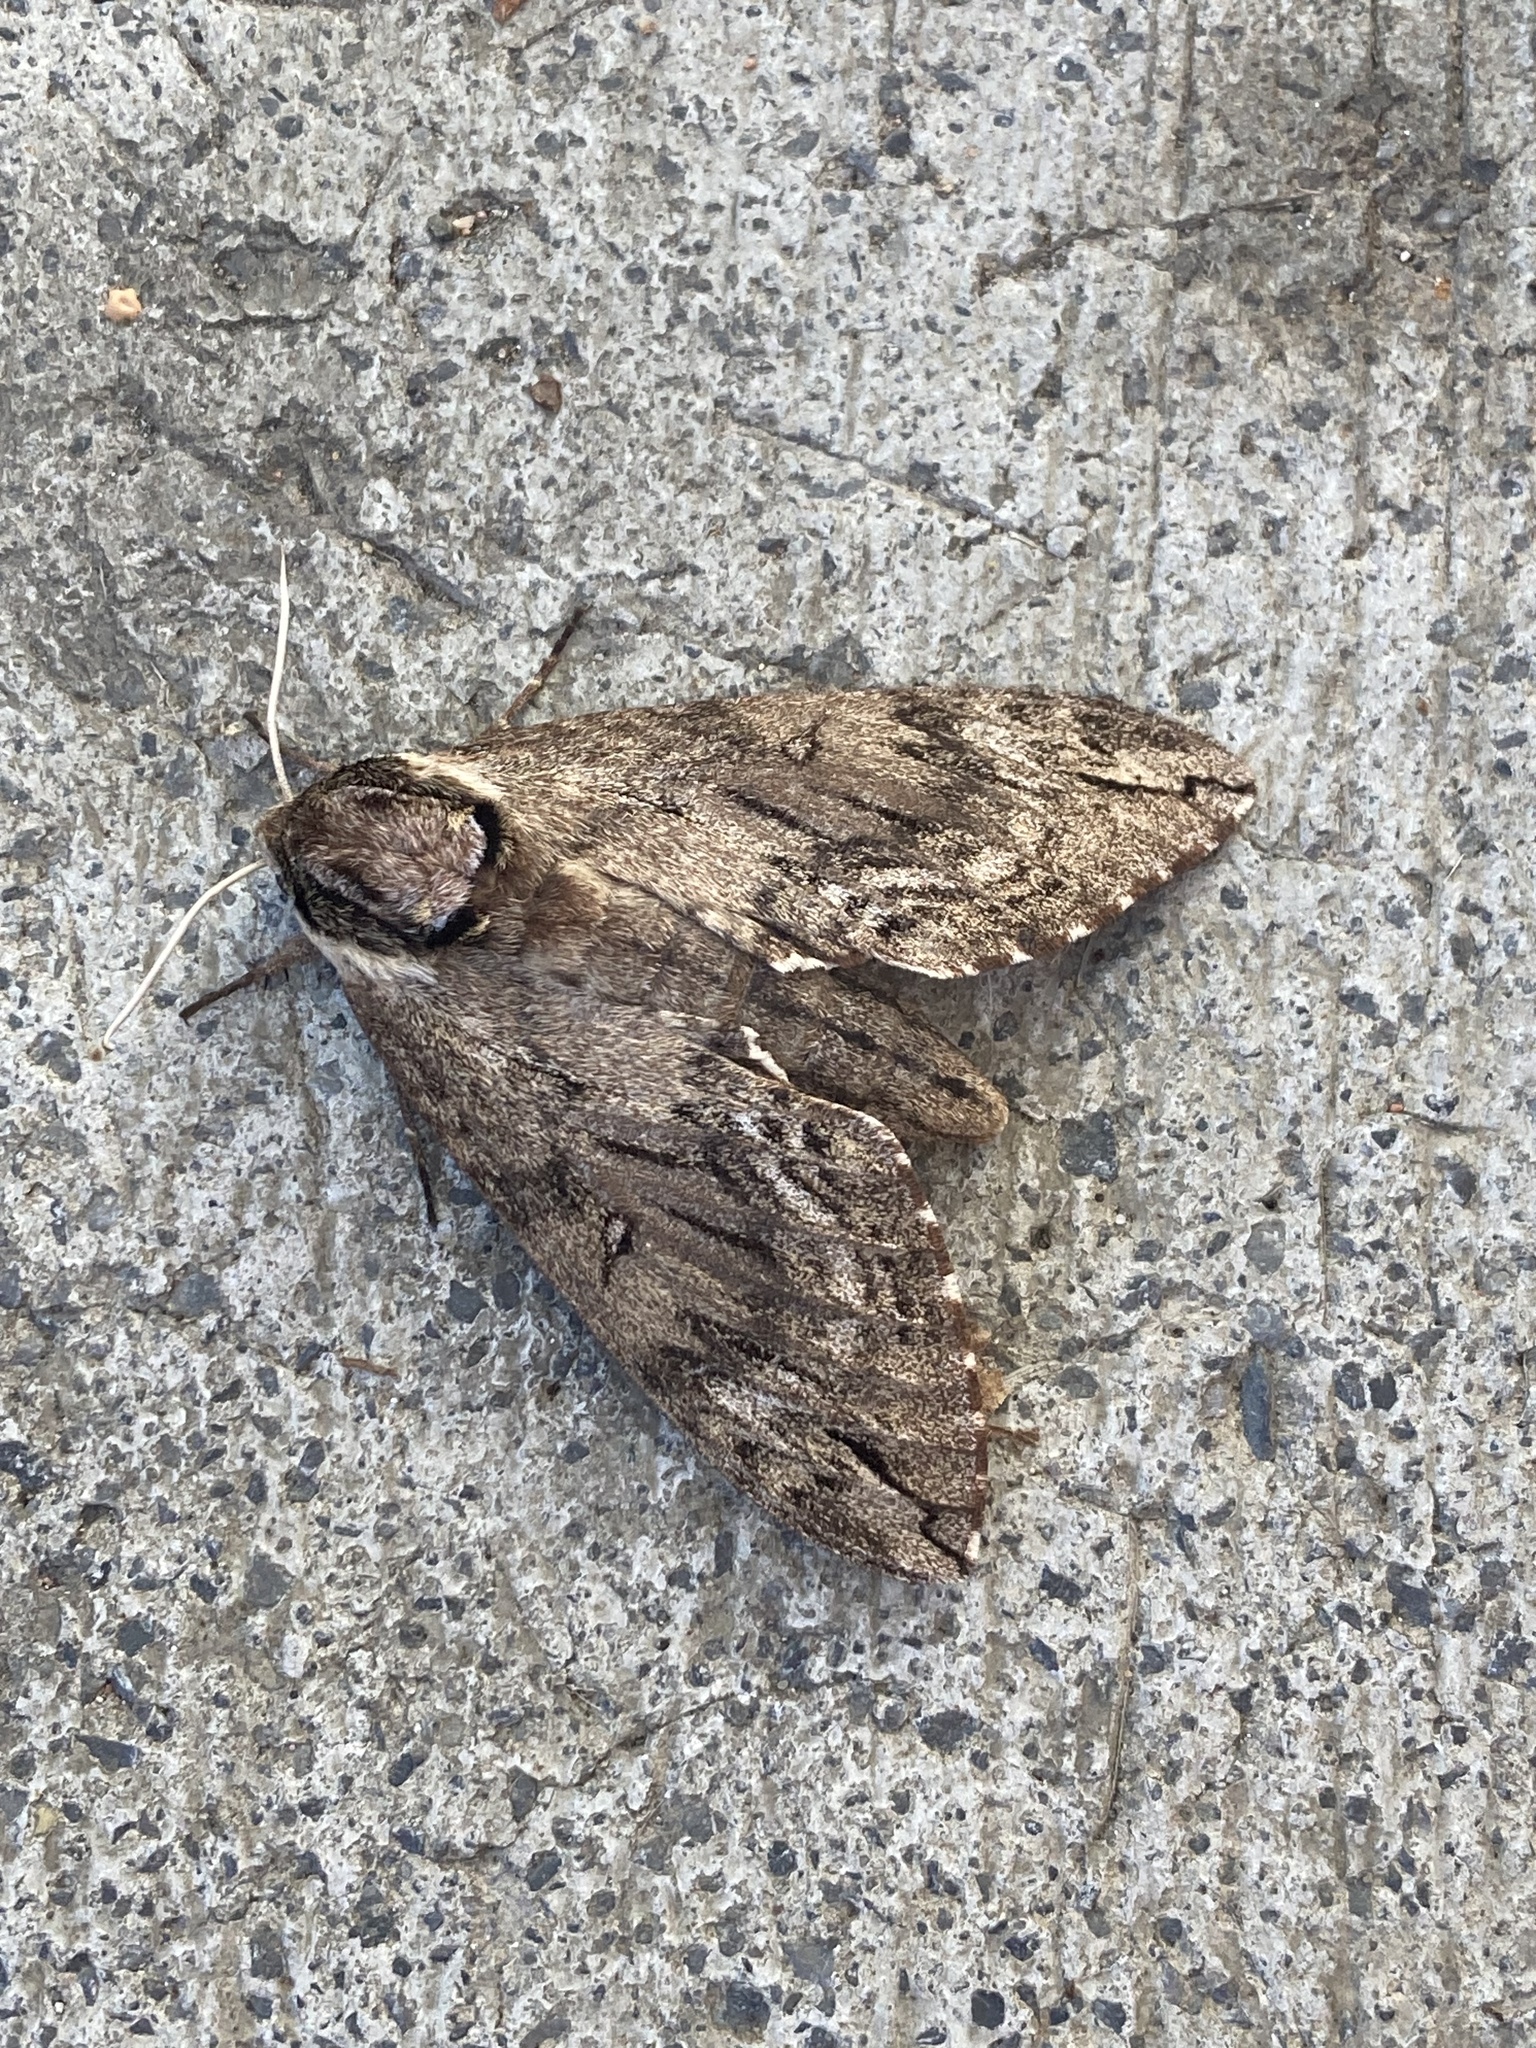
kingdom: Animalia
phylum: Arthropoda
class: Insecta
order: Lepidoptera
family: Sphingidae
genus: Ceratomia
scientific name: Ceratomia catalpae
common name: Catalpa hornworm
